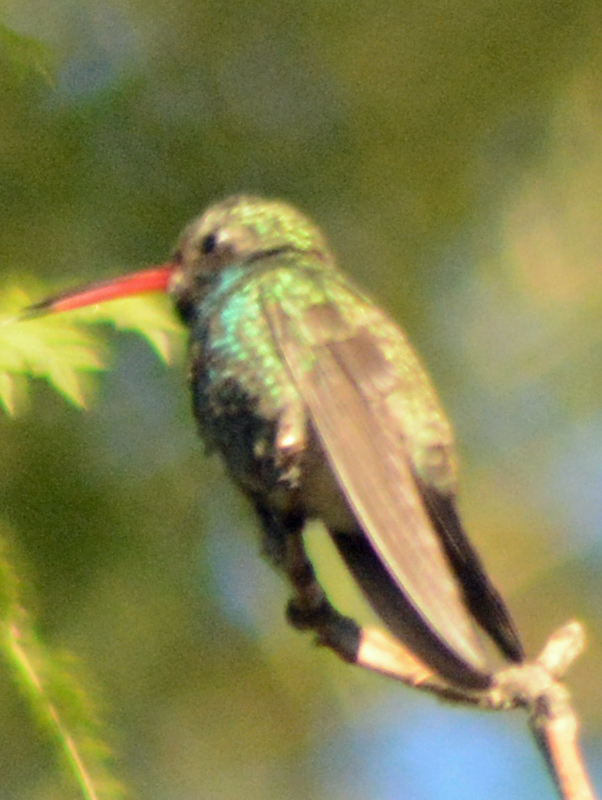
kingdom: Animalia
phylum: Chordata
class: Aves
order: Apodiformes
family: Trochilidae
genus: Cynanthus
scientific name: Cynanthus latirostris
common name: Broad-billed hummingbird
